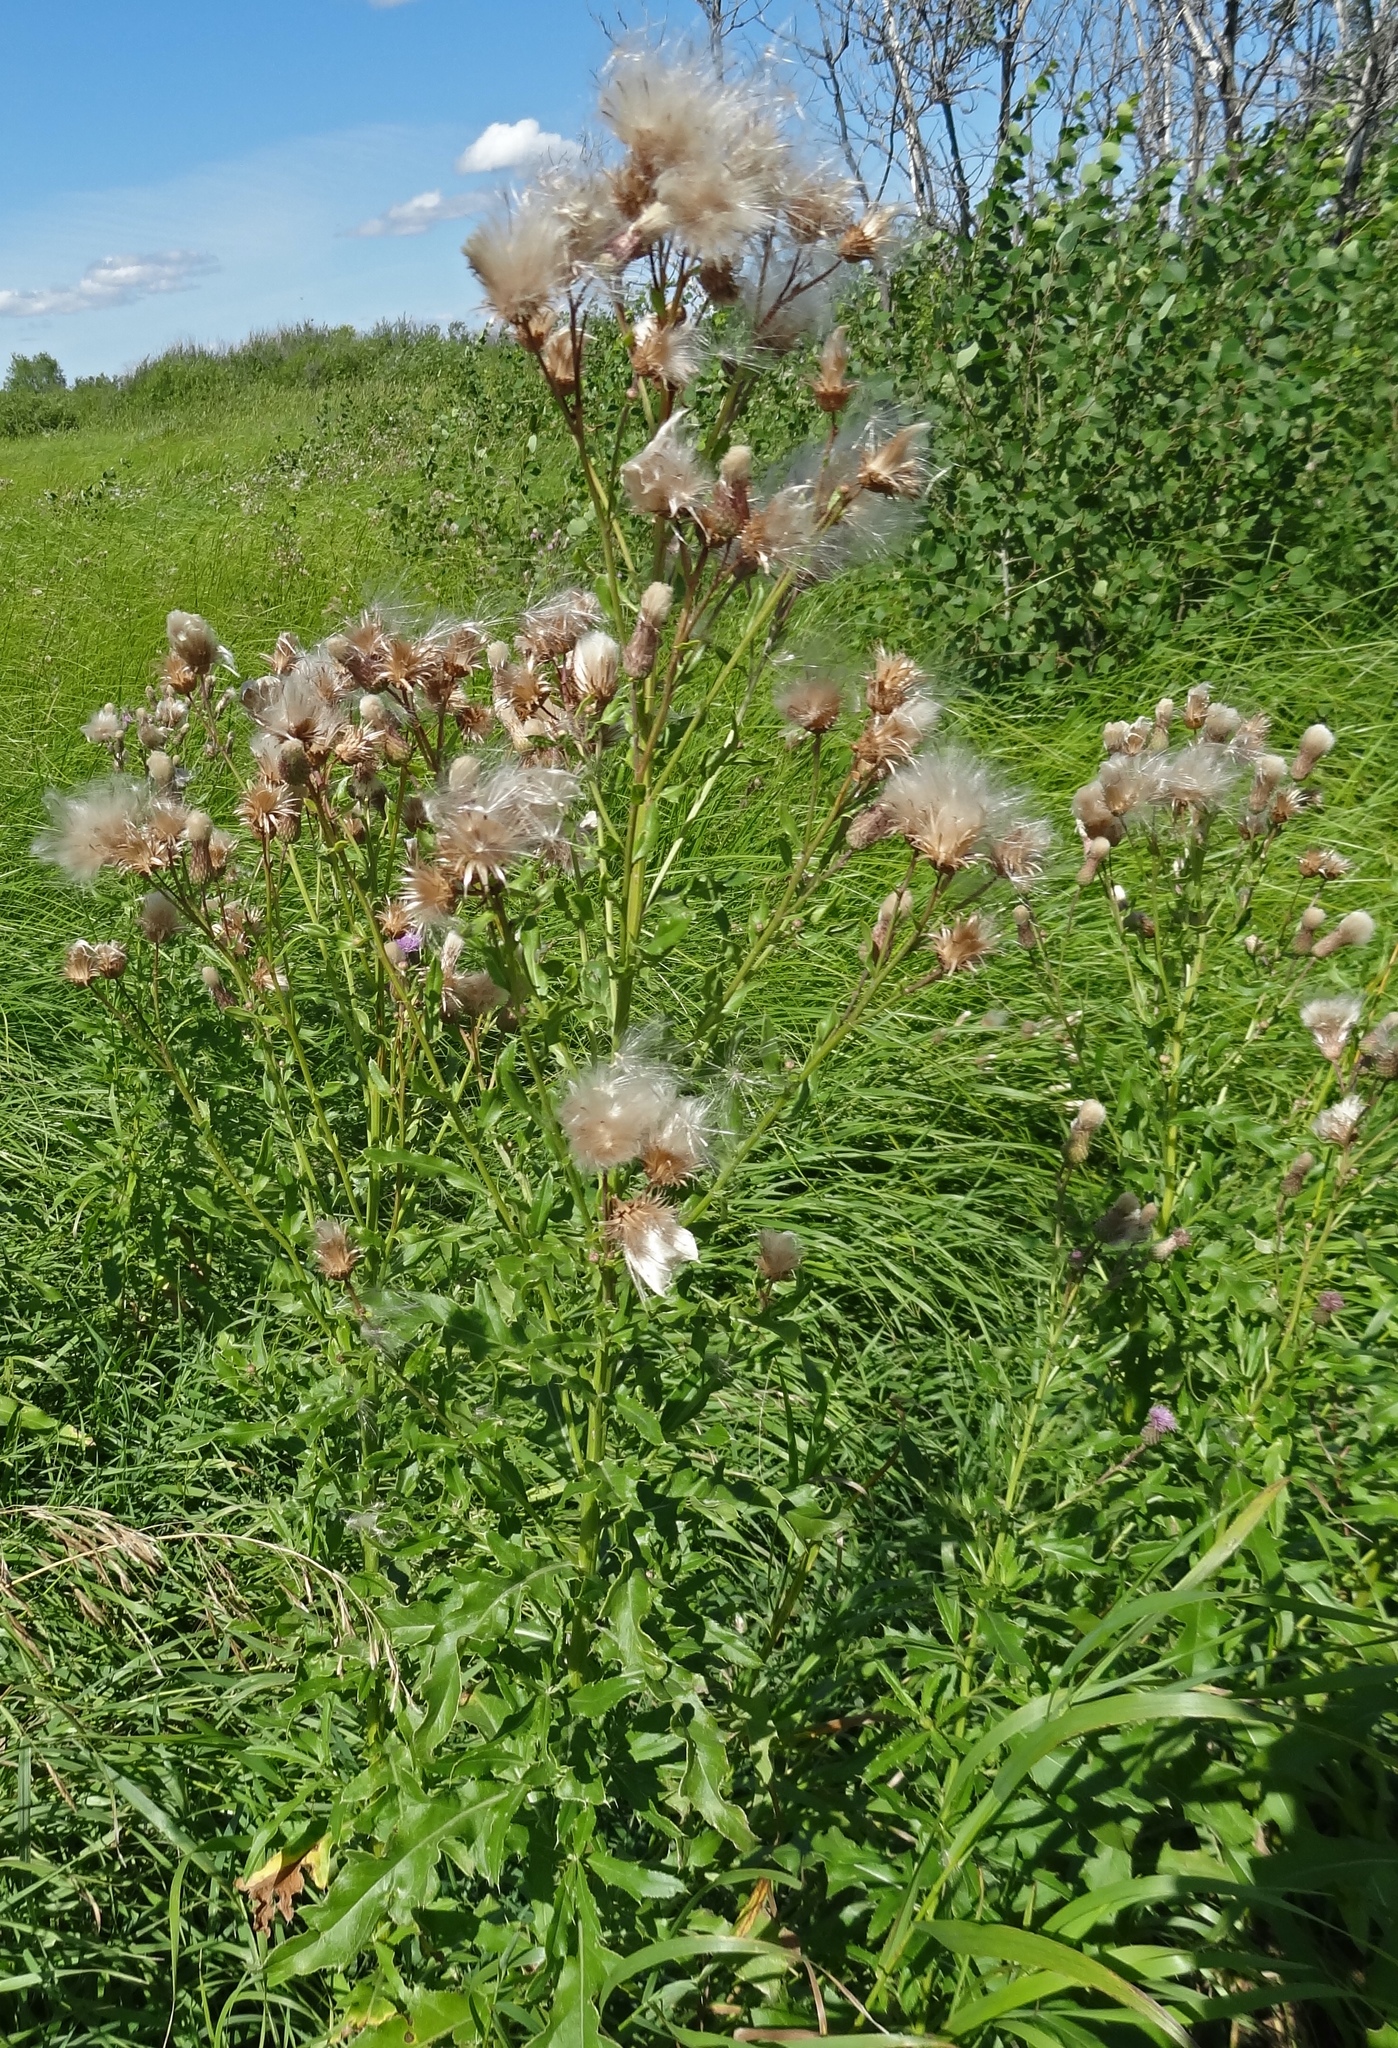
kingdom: Plantae
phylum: Tracheophyta
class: Magnoliopsida
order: Asterales
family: Asteraceae
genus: Cirsium
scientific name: Cirsium arvense
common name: Creeping thistle
